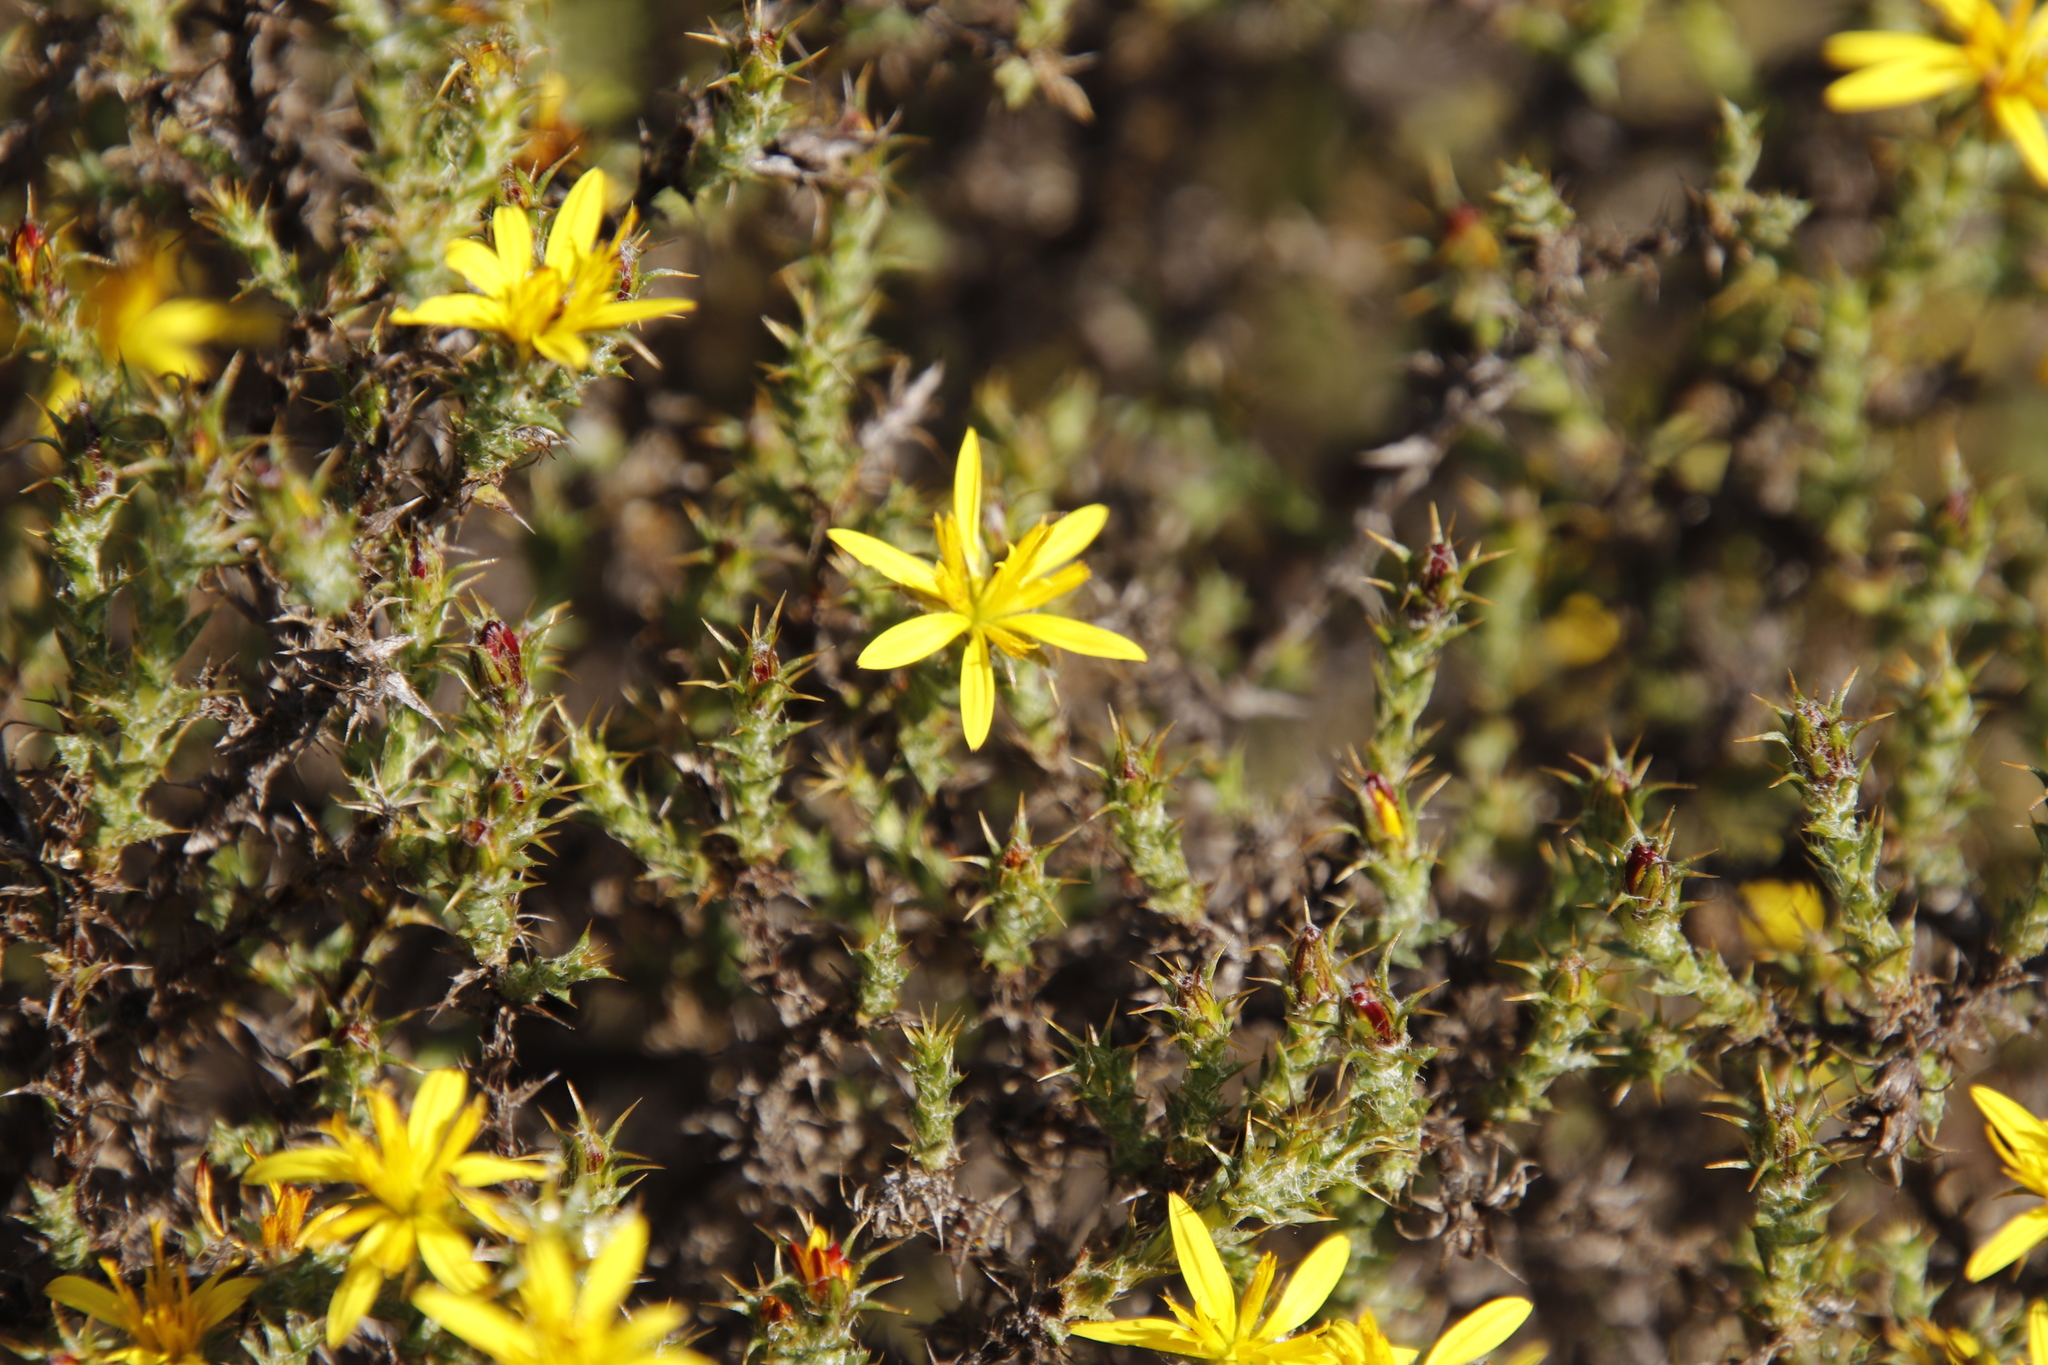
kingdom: Plantae
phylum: Tracheophyta
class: Magnoliopsida
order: Asterales
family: Asteraceae
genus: Cullumia
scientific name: Cullumia rigida
